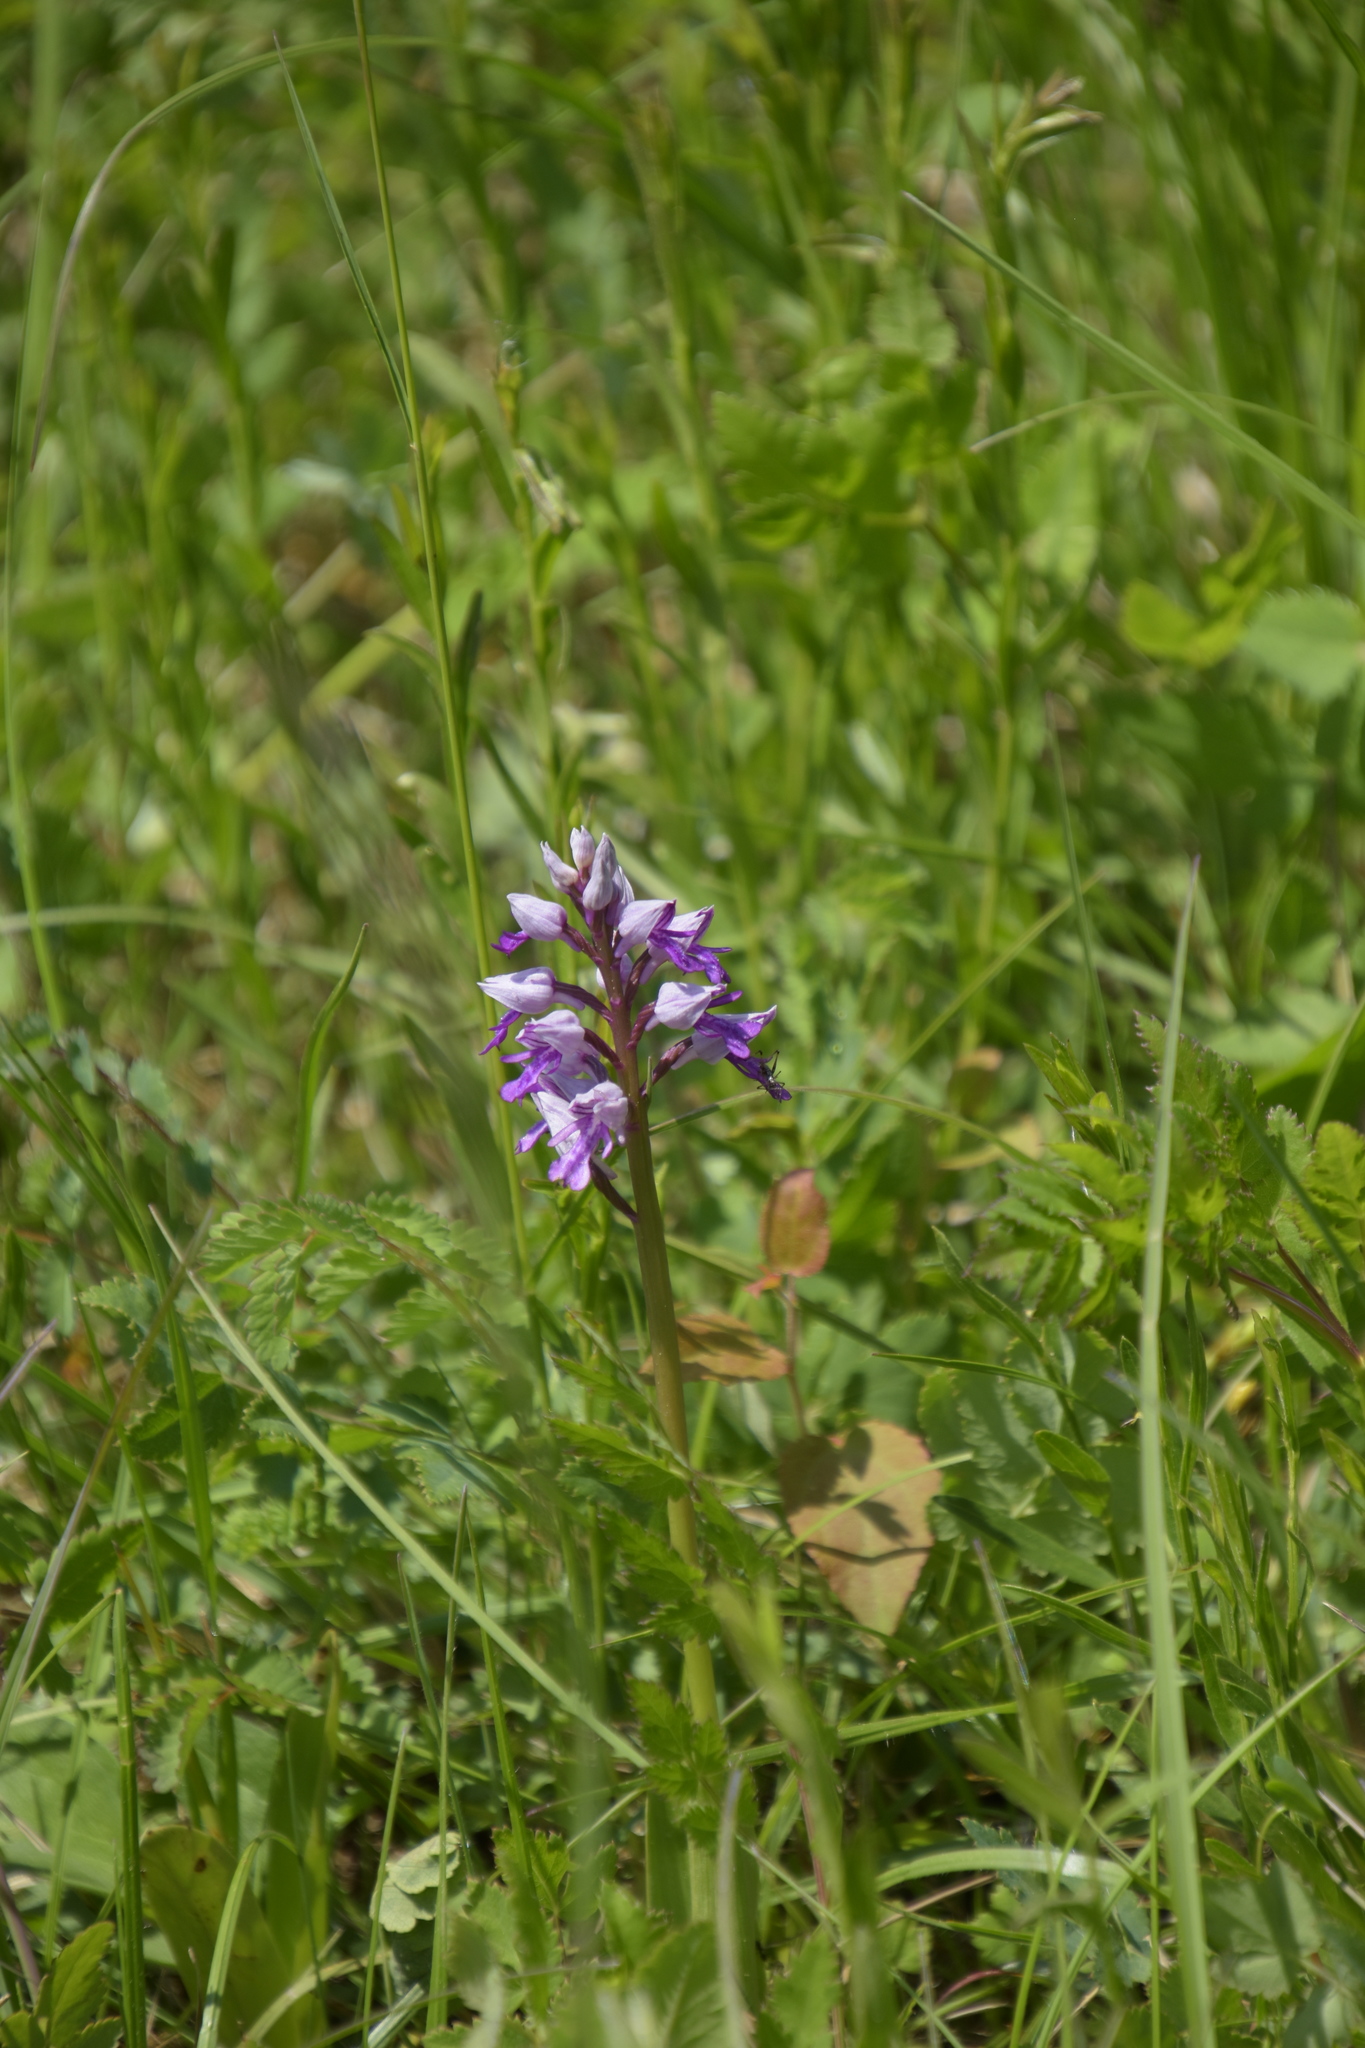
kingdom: Plantae
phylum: Tracheophyta
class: Liliopsida
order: Asparagales
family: Orchidaceae
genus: Orchis
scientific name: Orchis militaris
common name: Military orchid
